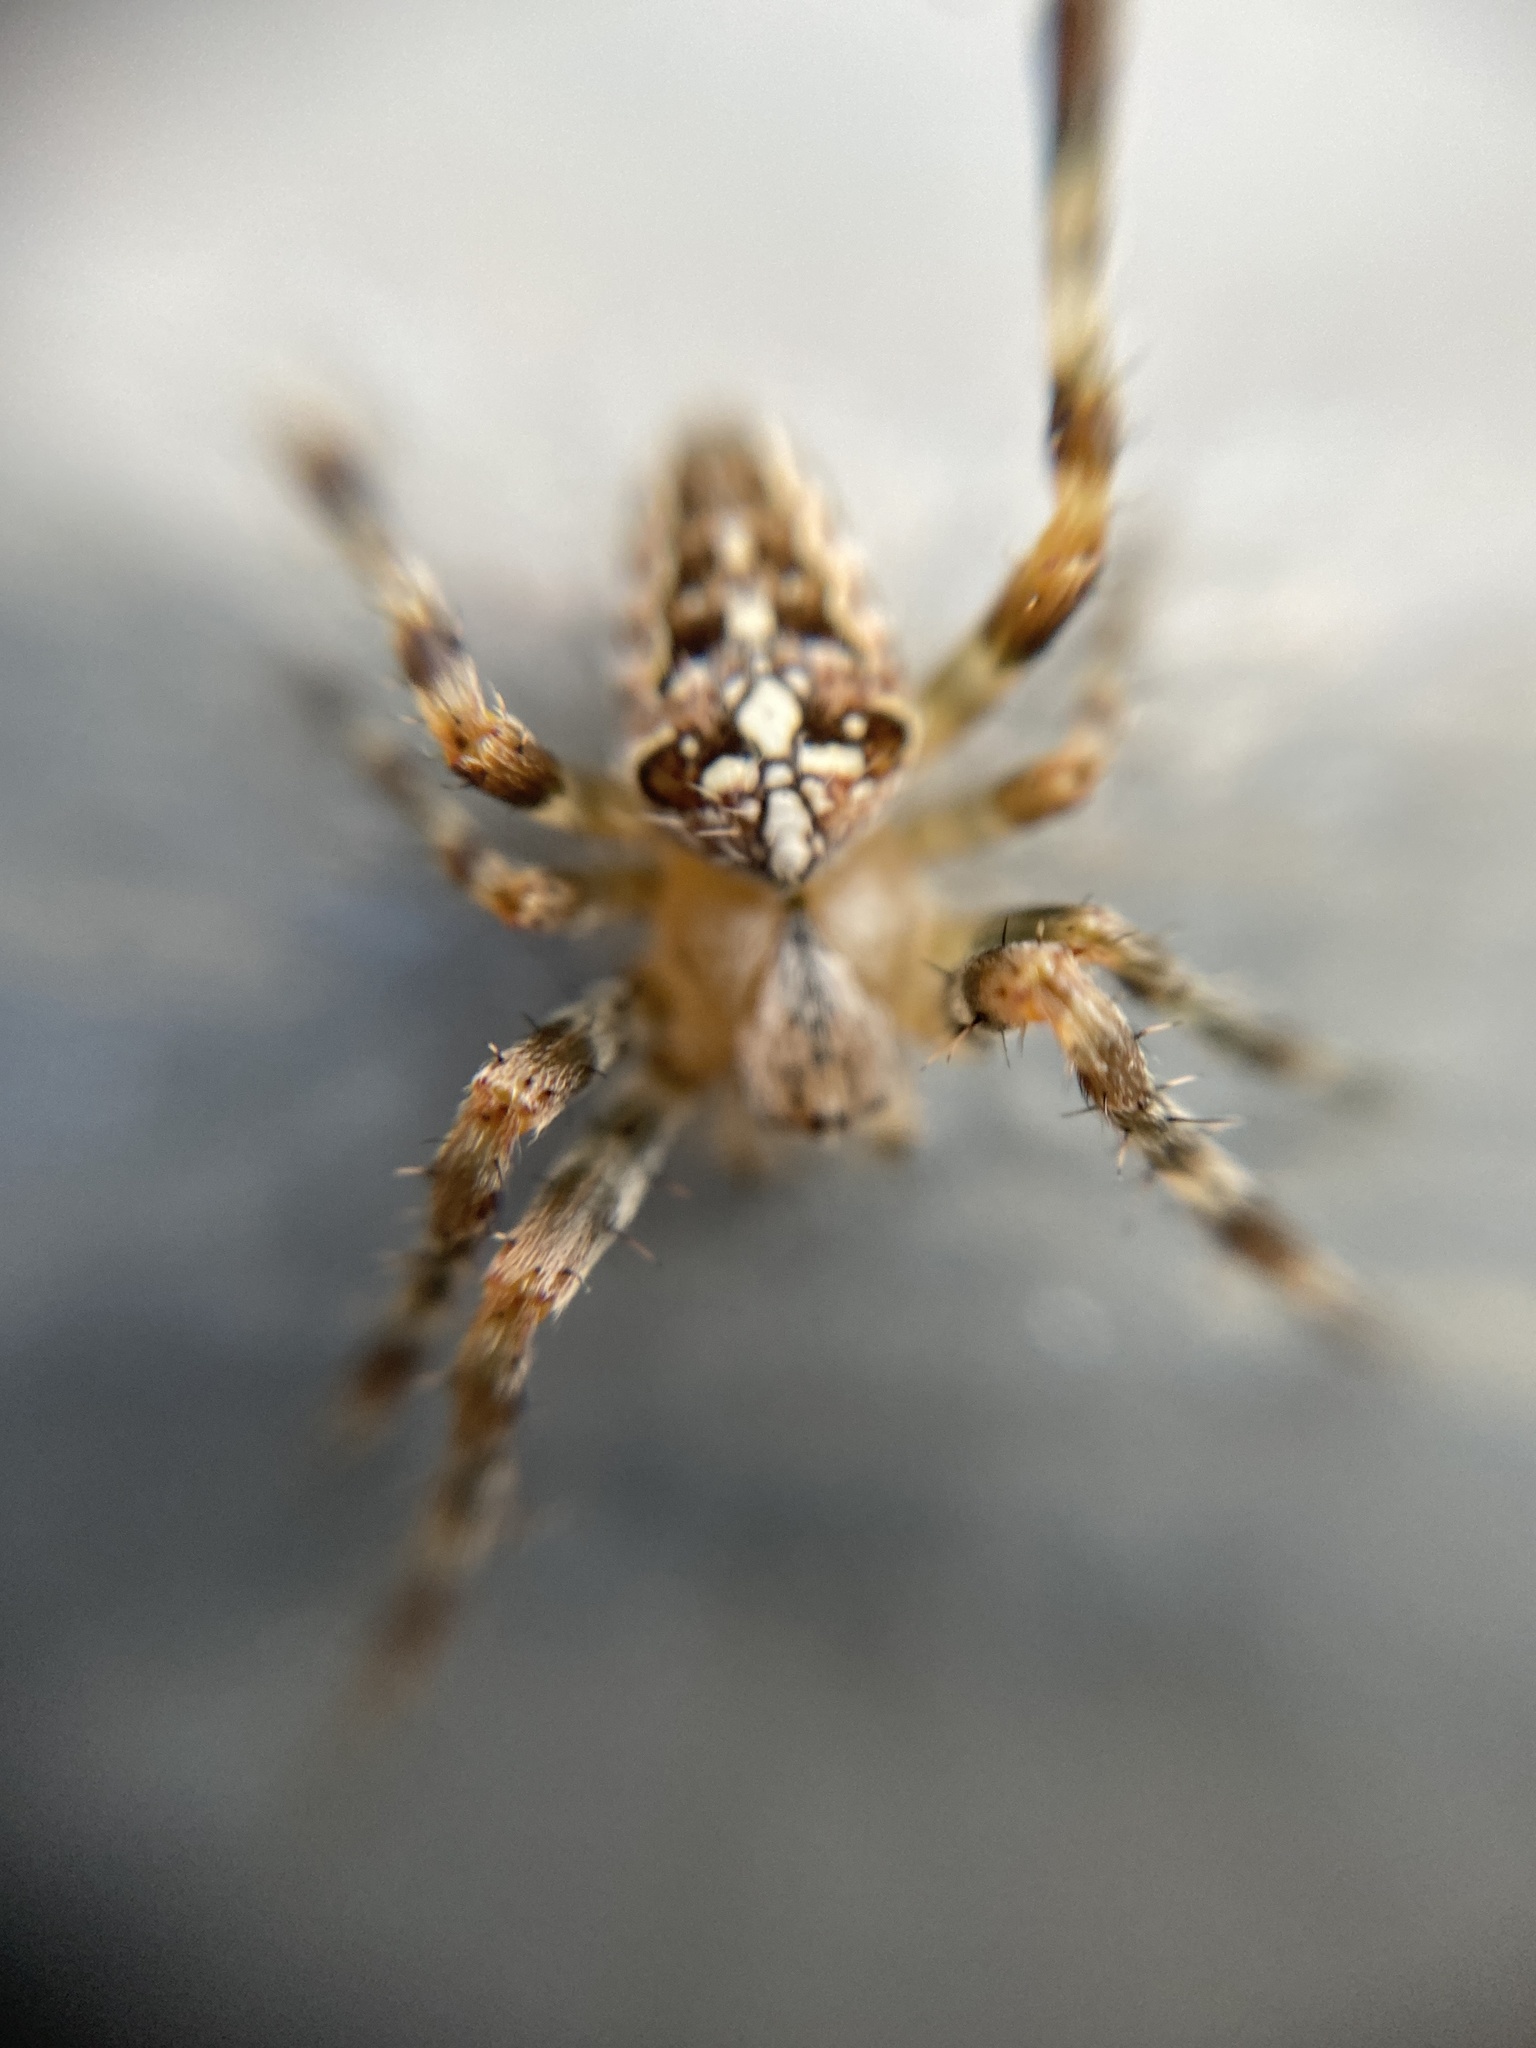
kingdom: Animalia
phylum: Arthropoda
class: Arachnida
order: Araneae
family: Araneidae
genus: Araneus
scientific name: Araneus diadematus
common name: Cross orbweaver
